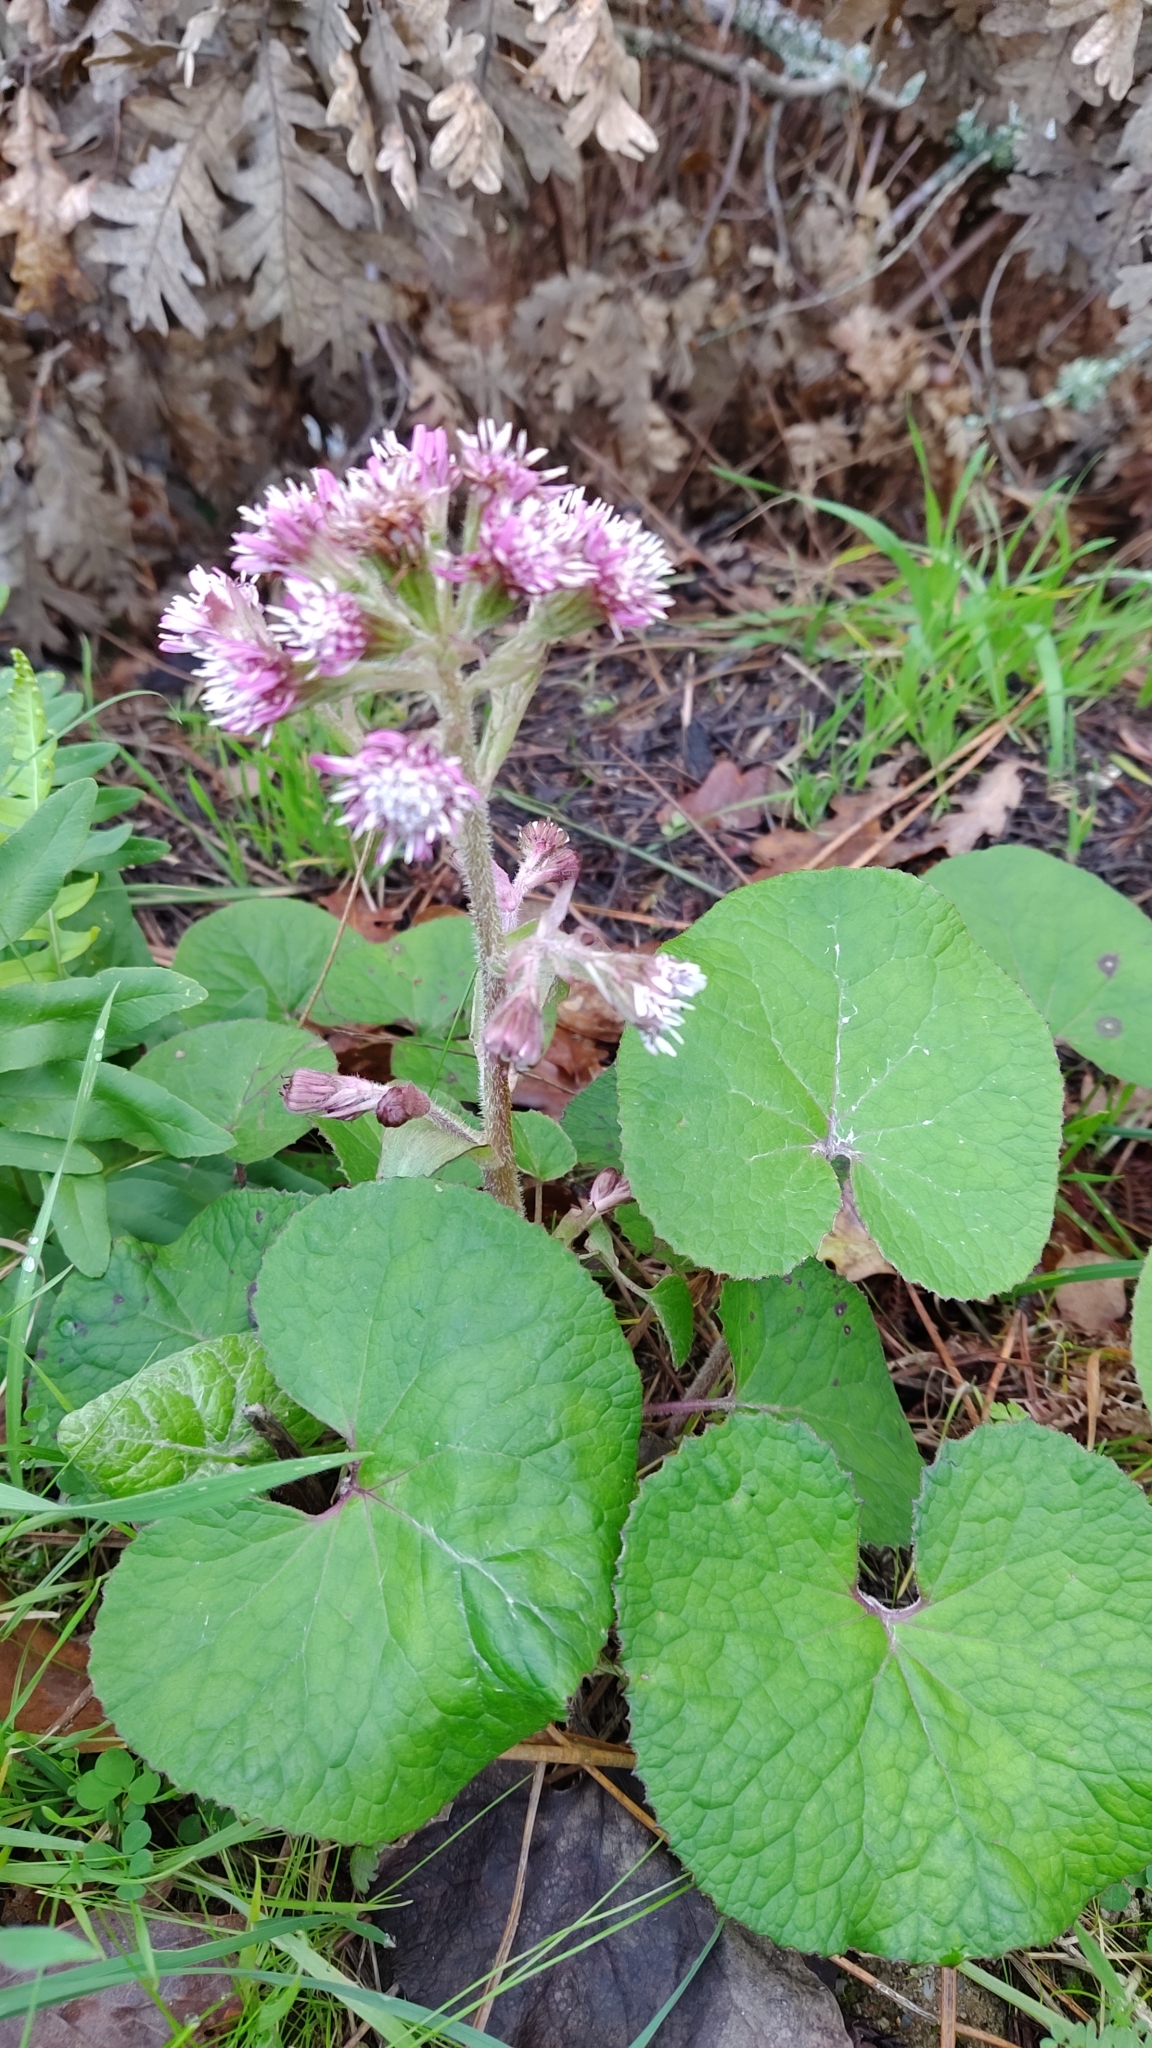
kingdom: Plantae
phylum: Tracheophyta
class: Magnoliopsida
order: Asterales
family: Asteraceae
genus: Petasites
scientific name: Petasites pyrenaicus
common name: Winter heliotrope
